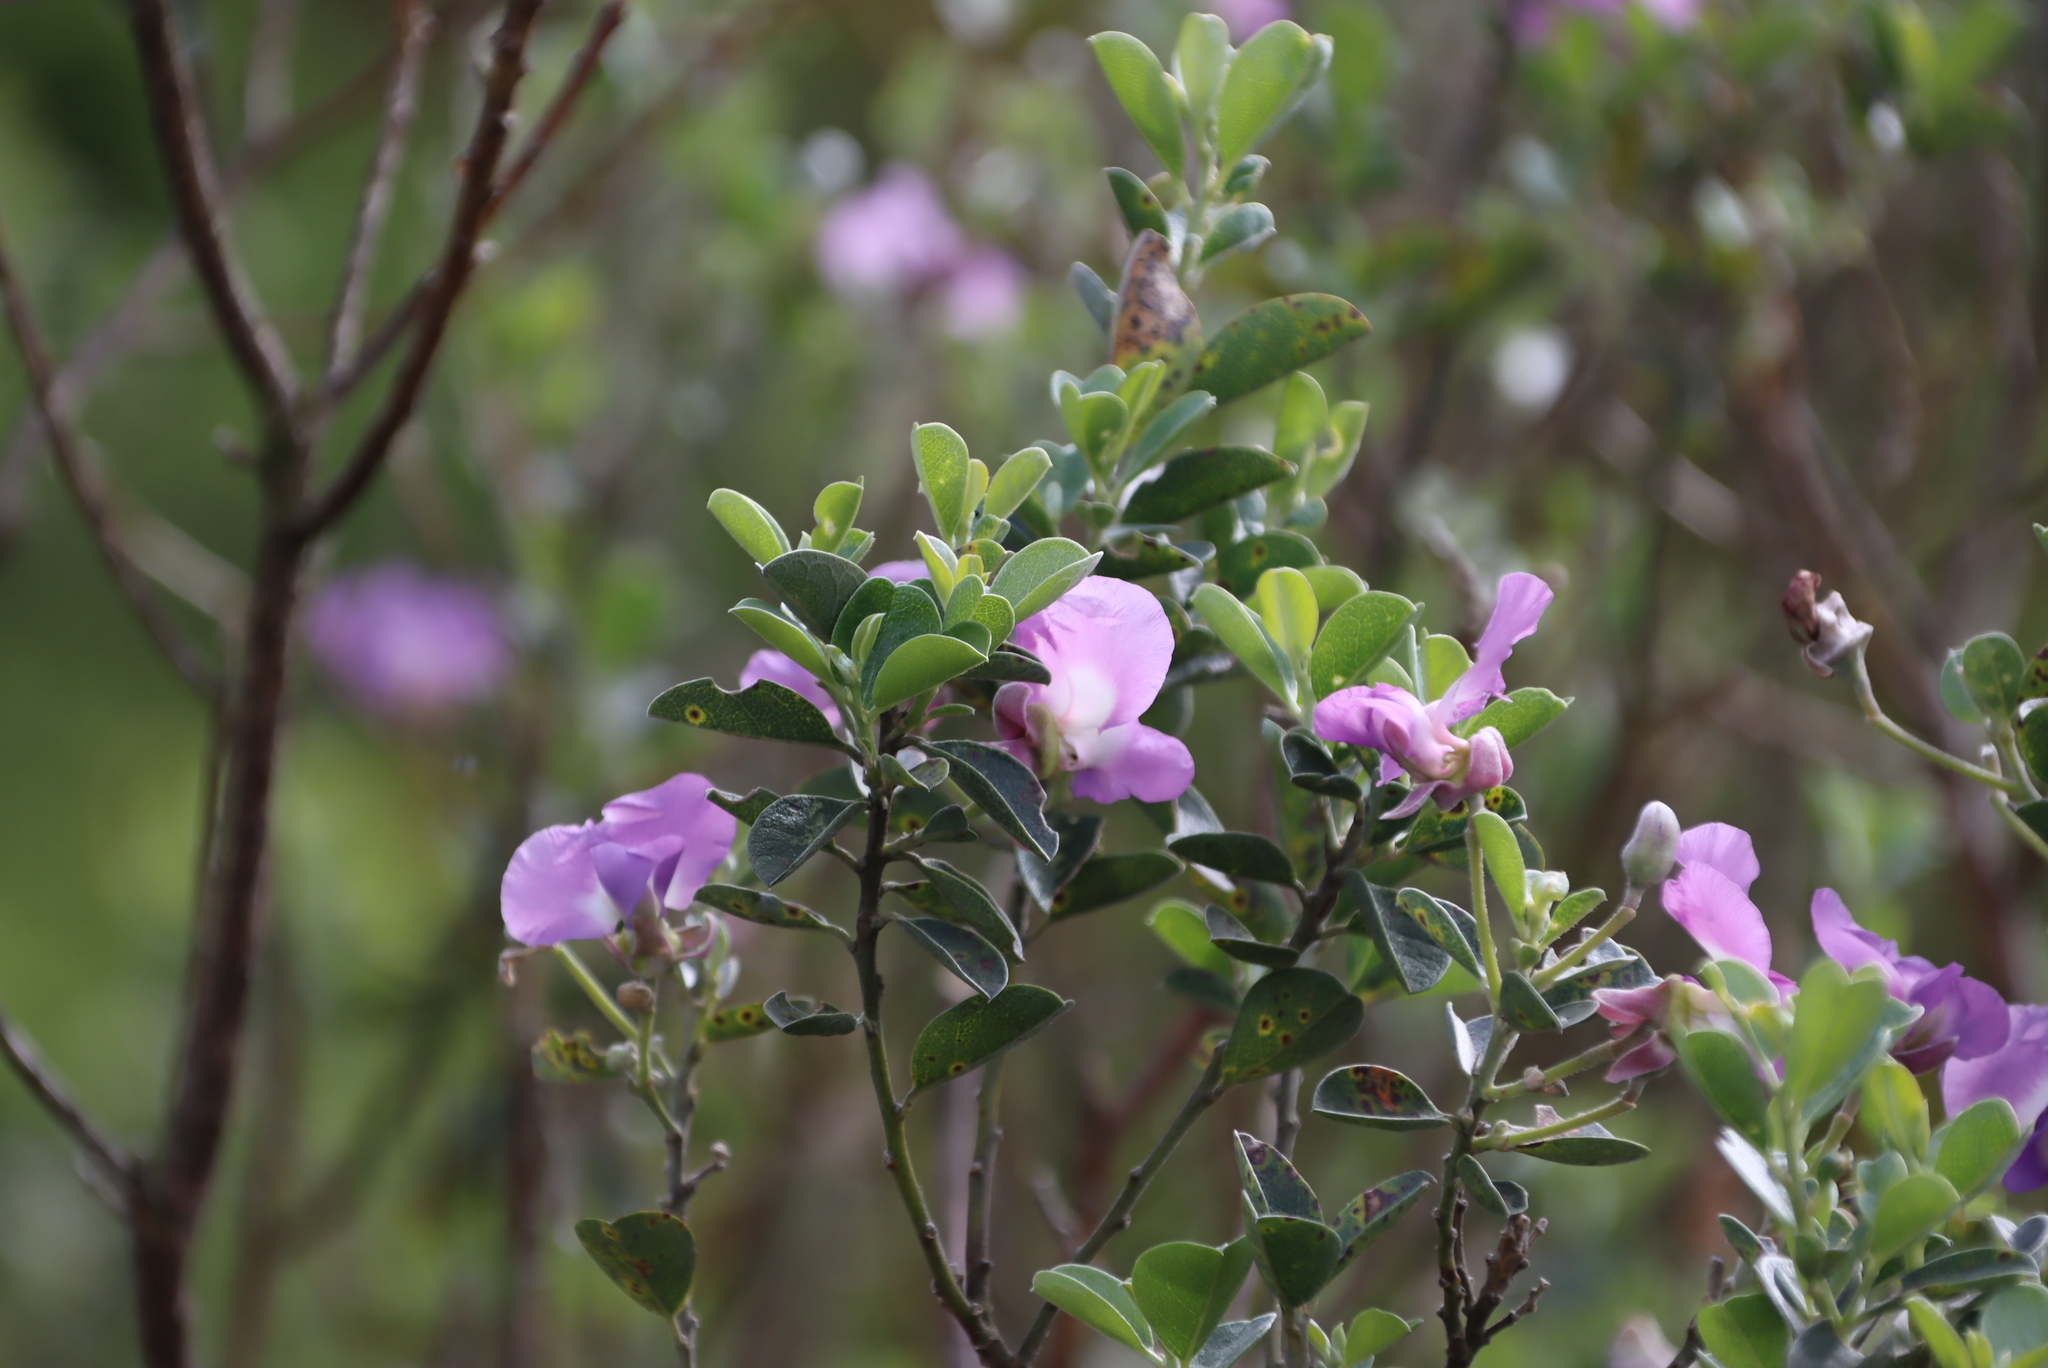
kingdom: Plantae
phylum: Tracheophyta
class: Magnoliopsida
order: Fabales
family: Fabaceae
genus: Podalyria
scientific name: Podalyria calyptrata
